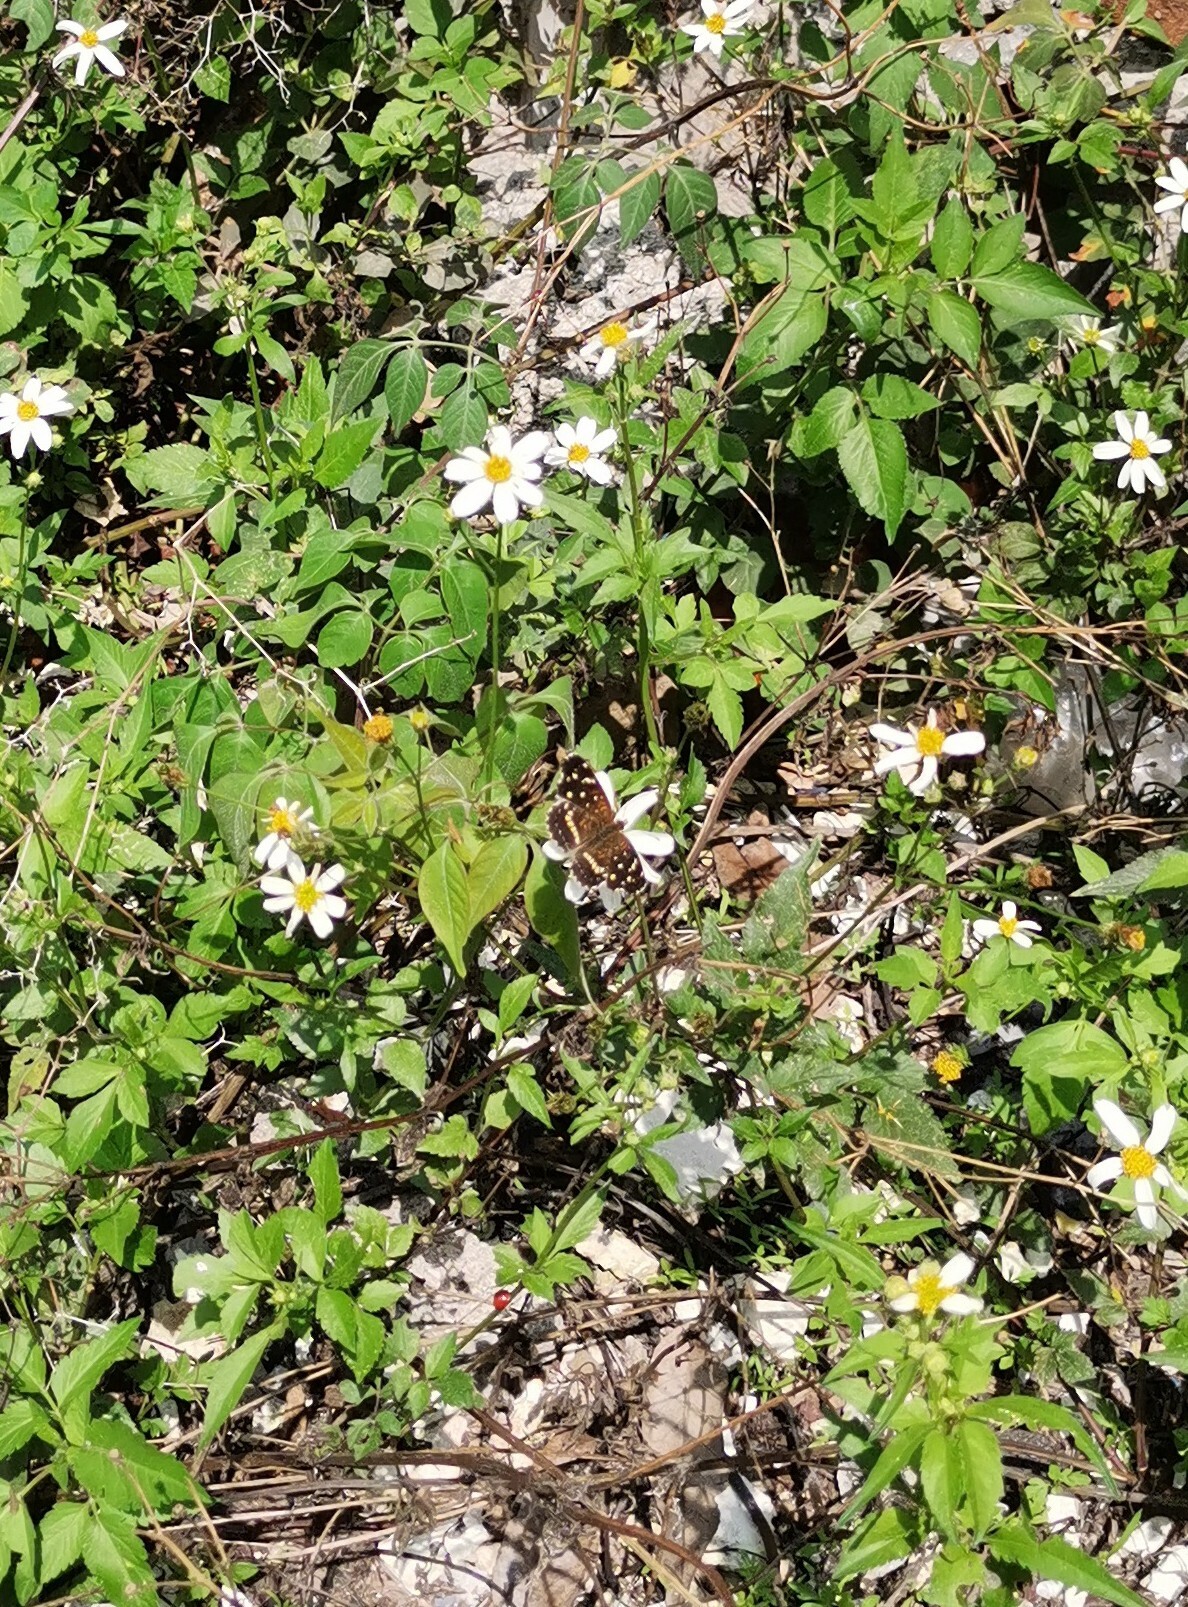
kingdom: Animalia
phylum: Arthropoda
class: Insecta
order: Lepidoptera
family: Nymphalidae
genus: Anthanassa
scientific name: Anthanassa texana
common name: Texan crescent
